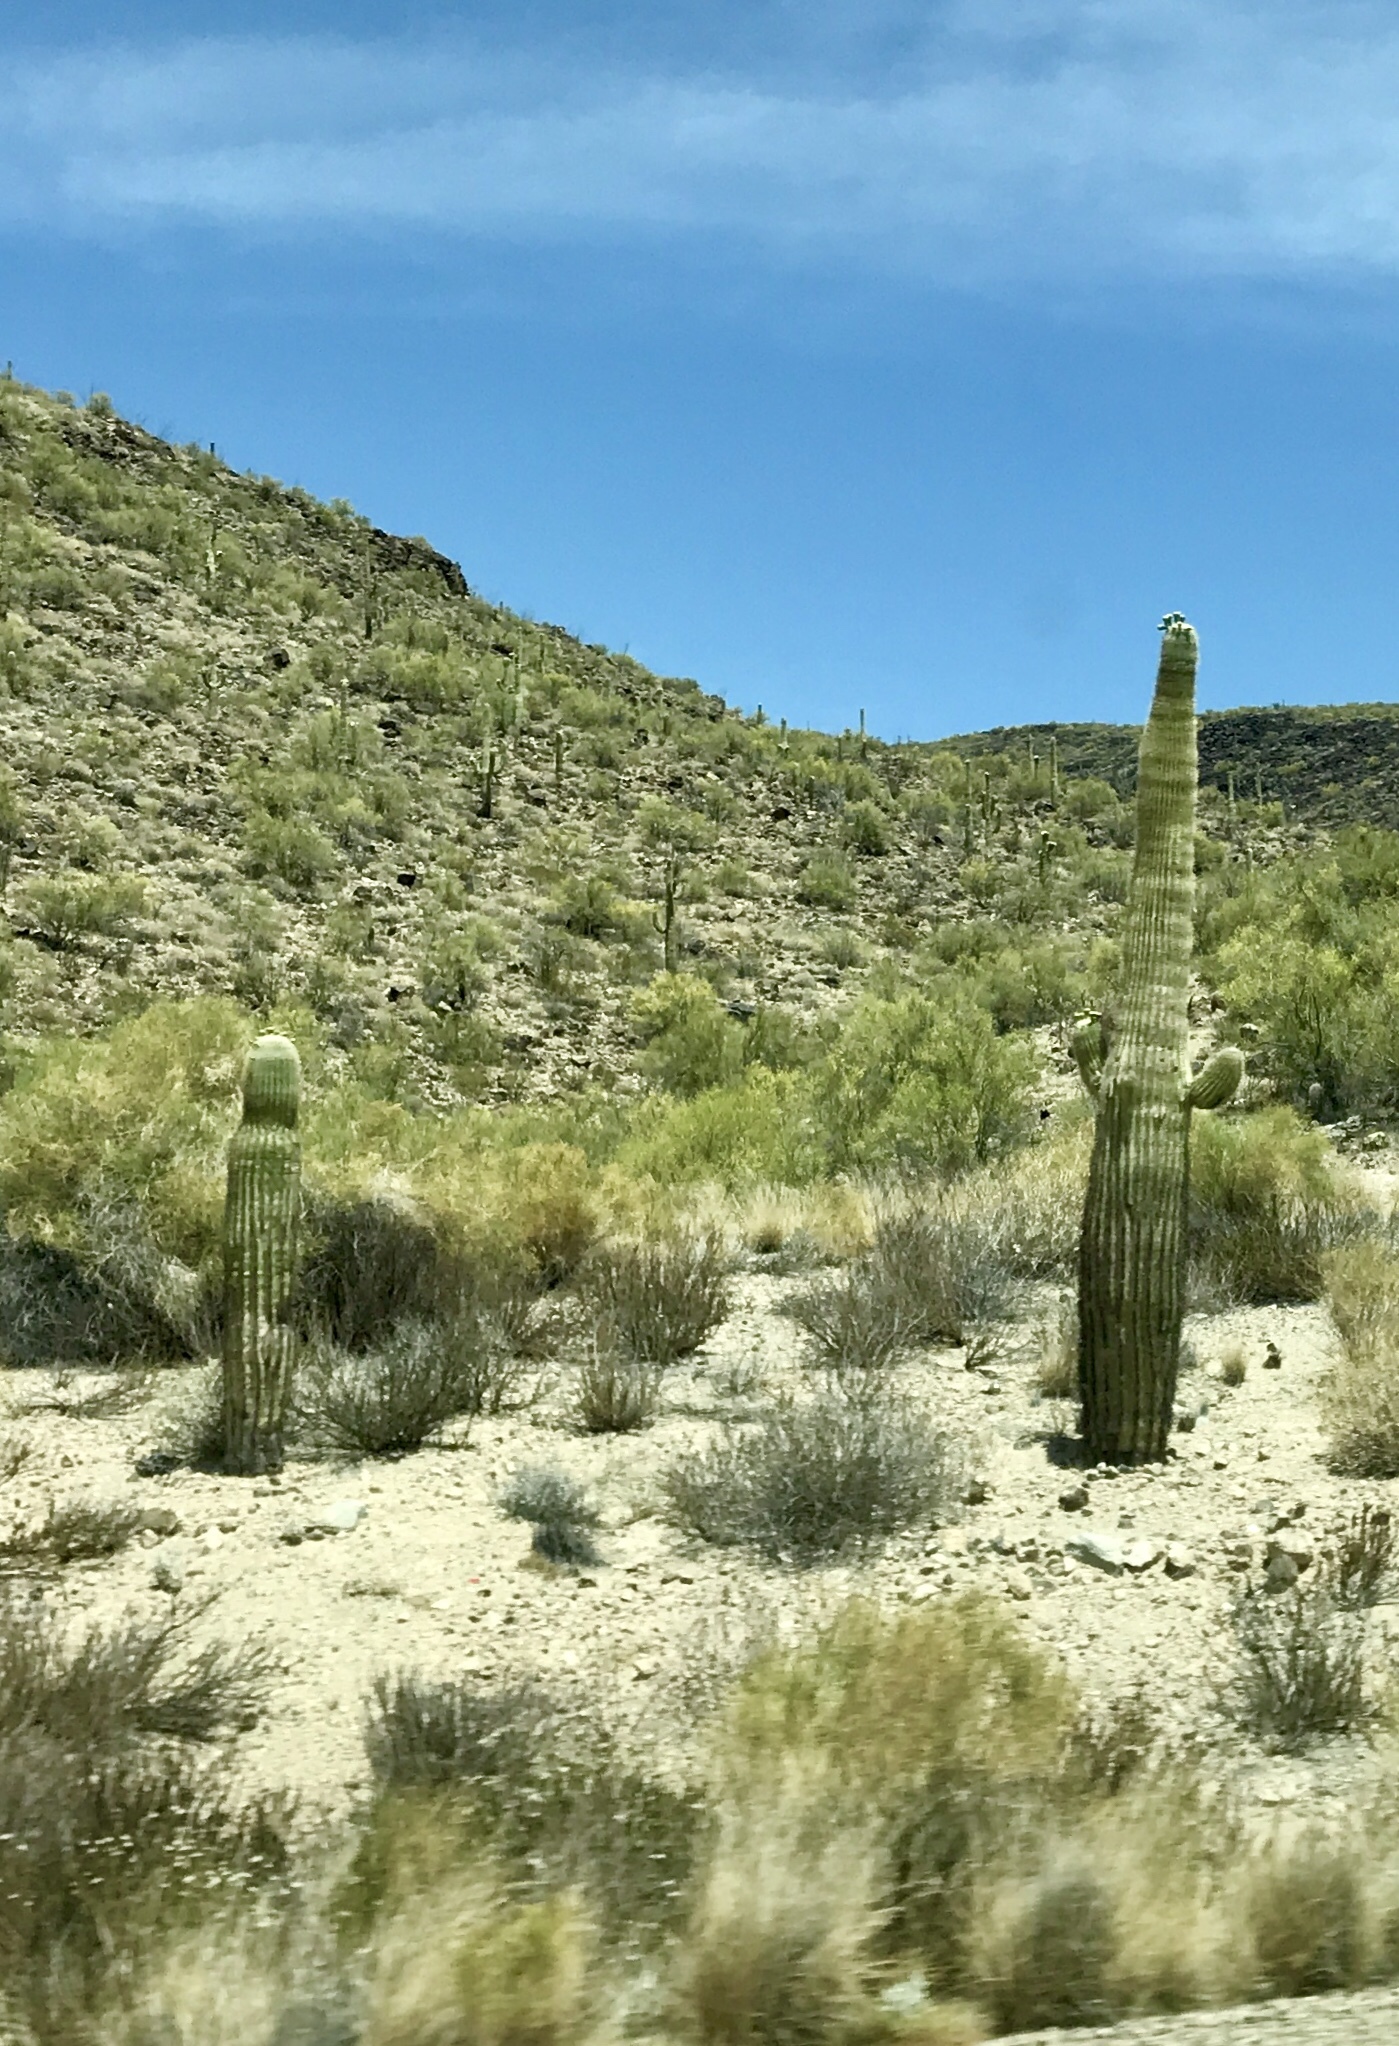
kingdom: Plantae
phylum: Tracheophyta
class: Magnoliopsida
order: Caryophyllales
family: Cactaceae
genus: Carnegiea
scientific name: Carnegiea gigantea
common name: Saguaro
